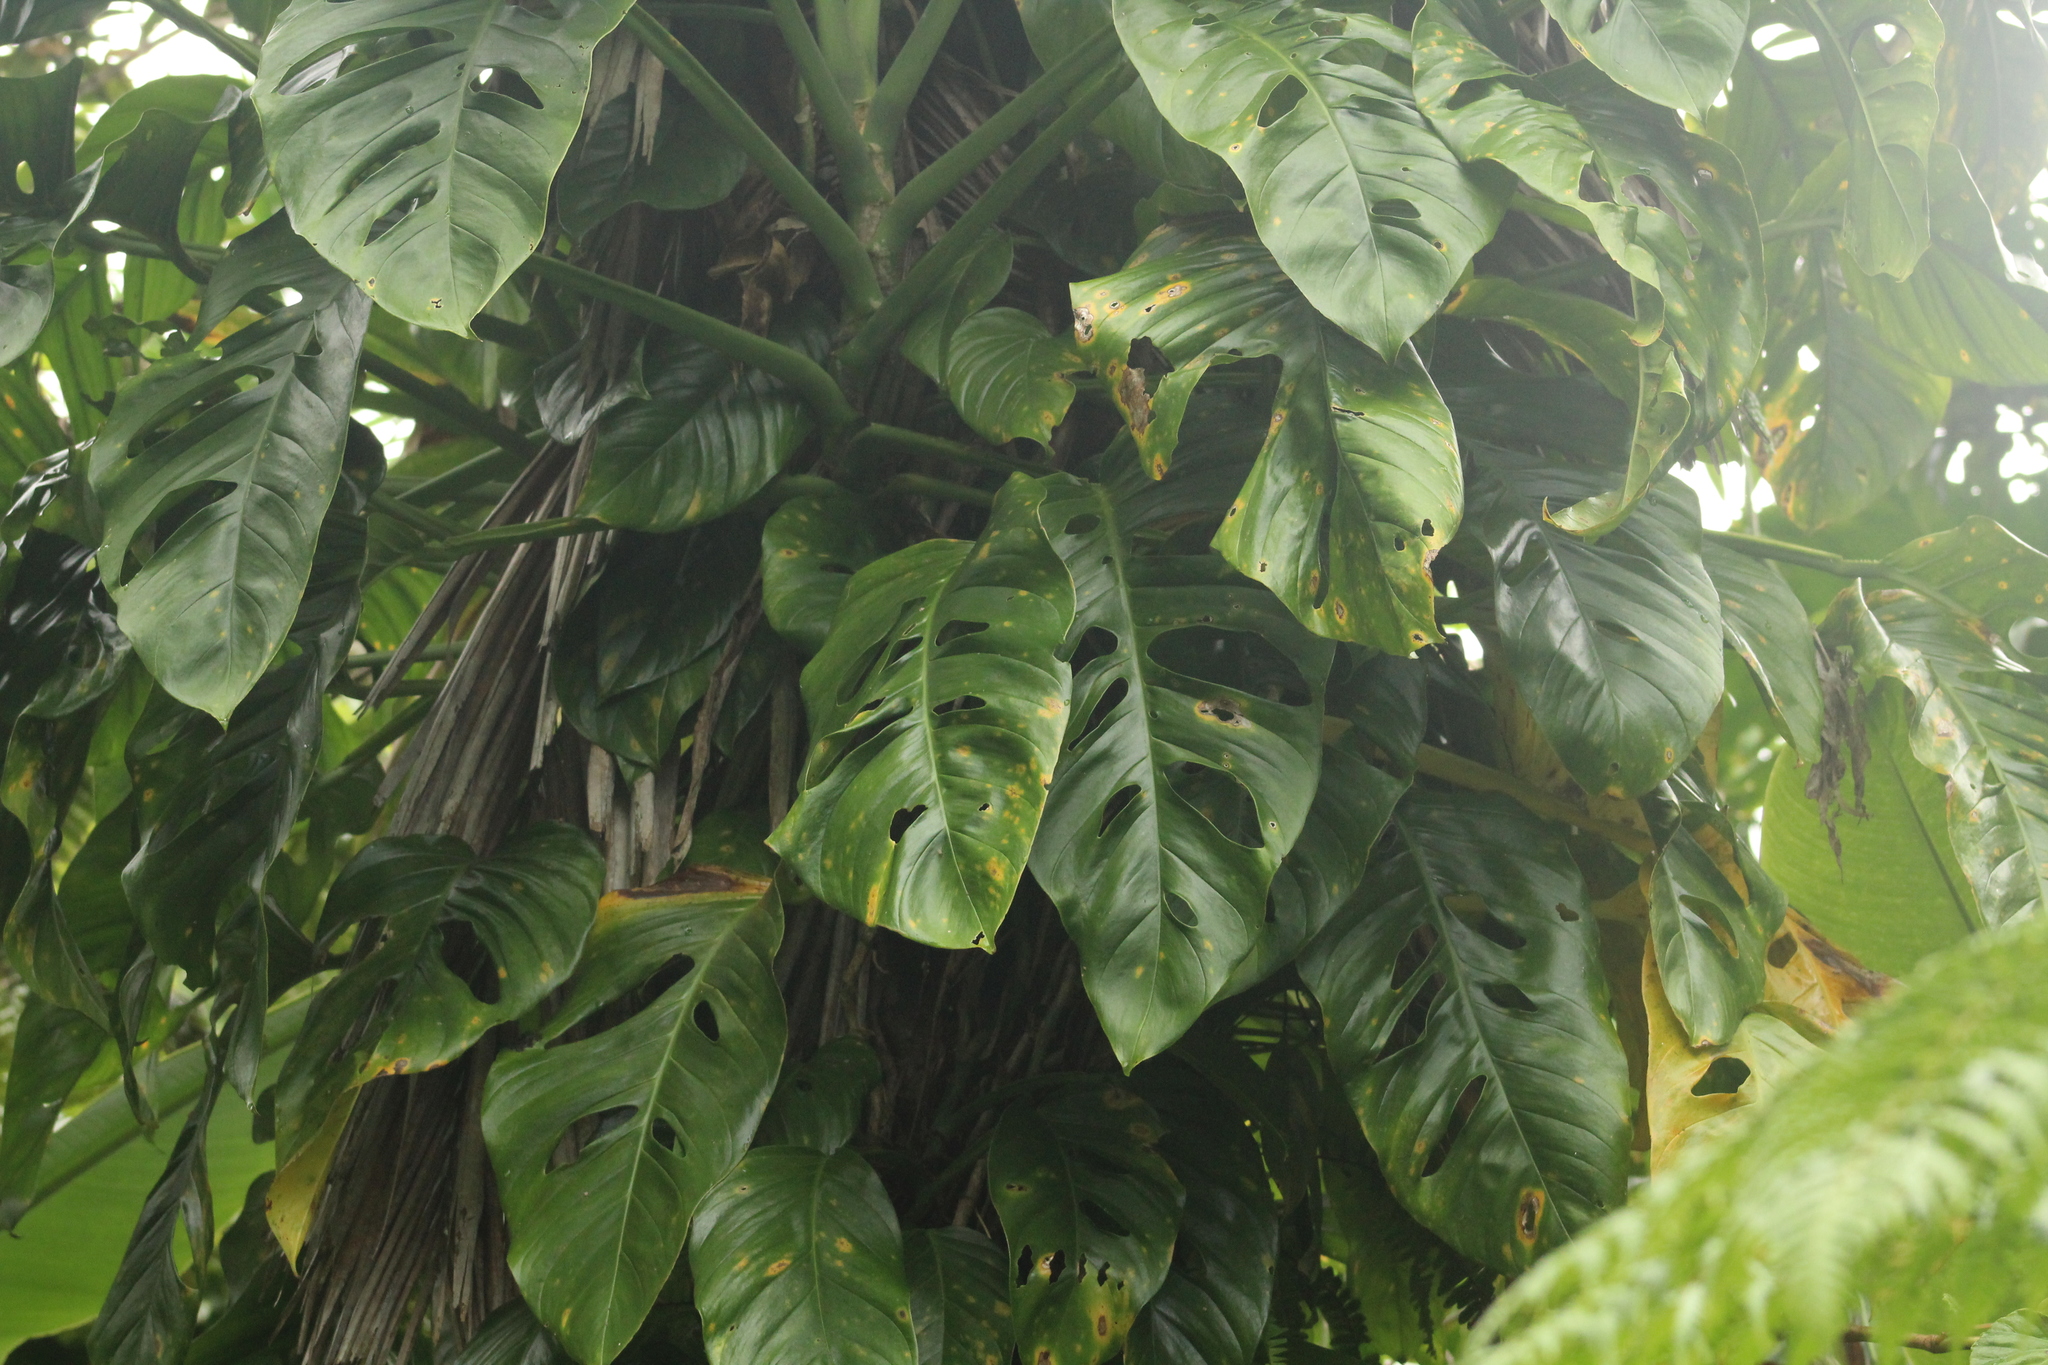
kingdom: Plantae
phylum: Tracheophyta
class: Liliopsida
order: Alismatales
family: Araceae
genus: Monstera
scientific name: Monstera adansonii
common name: Tarovine
